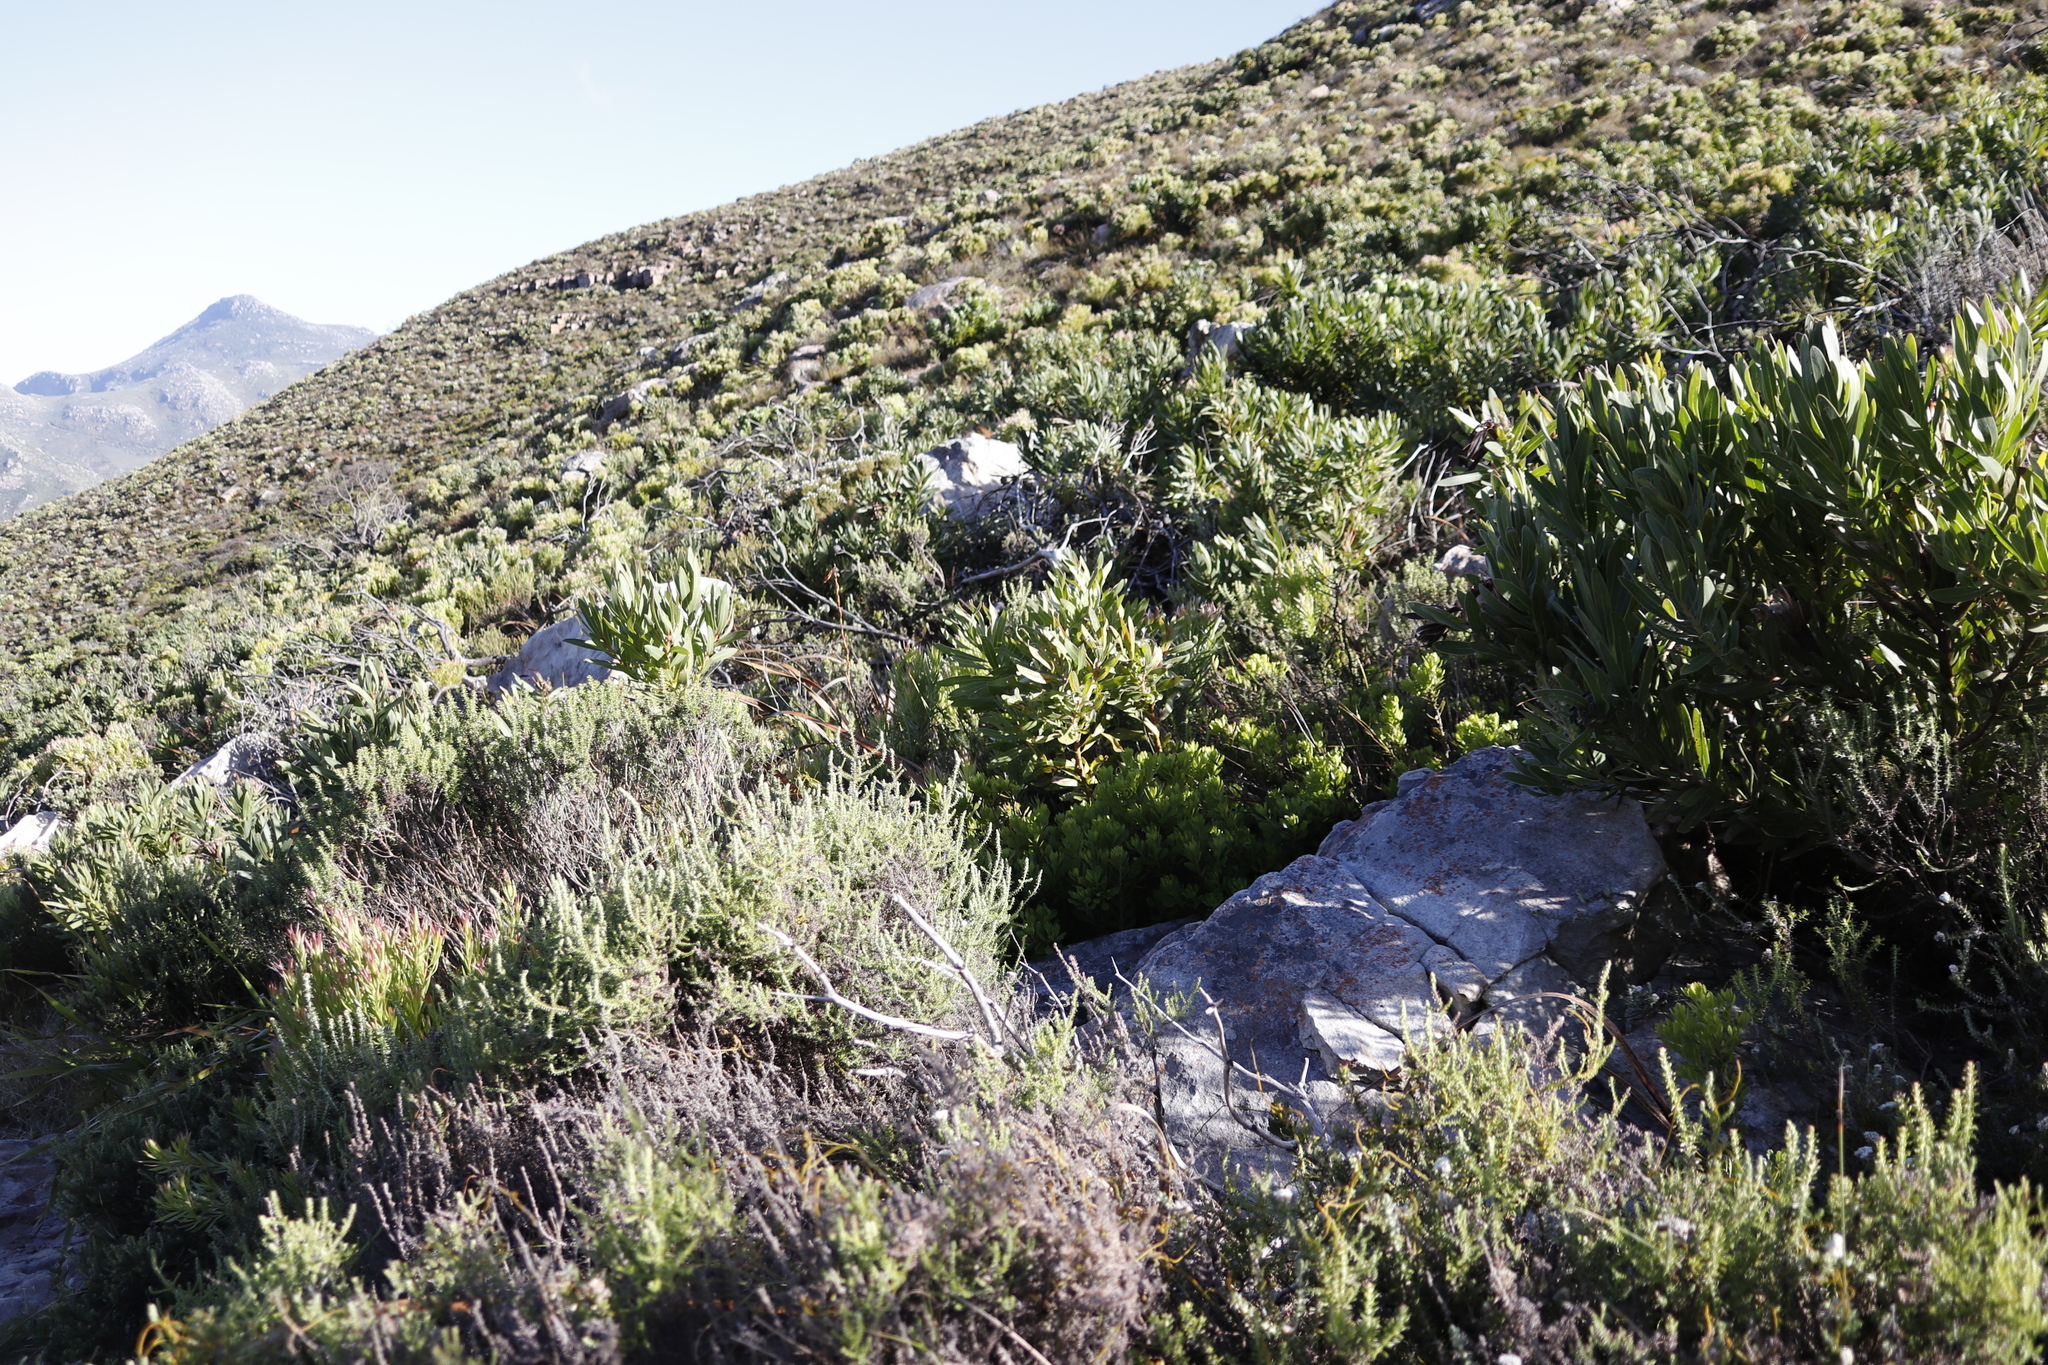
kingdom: Plantae
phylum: Tracheophyta
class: Magnoliopsida
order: Proteales
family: Proteaceae
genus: Protea
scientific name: Protea lepidocarpodendron
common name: Black-bearded protea
